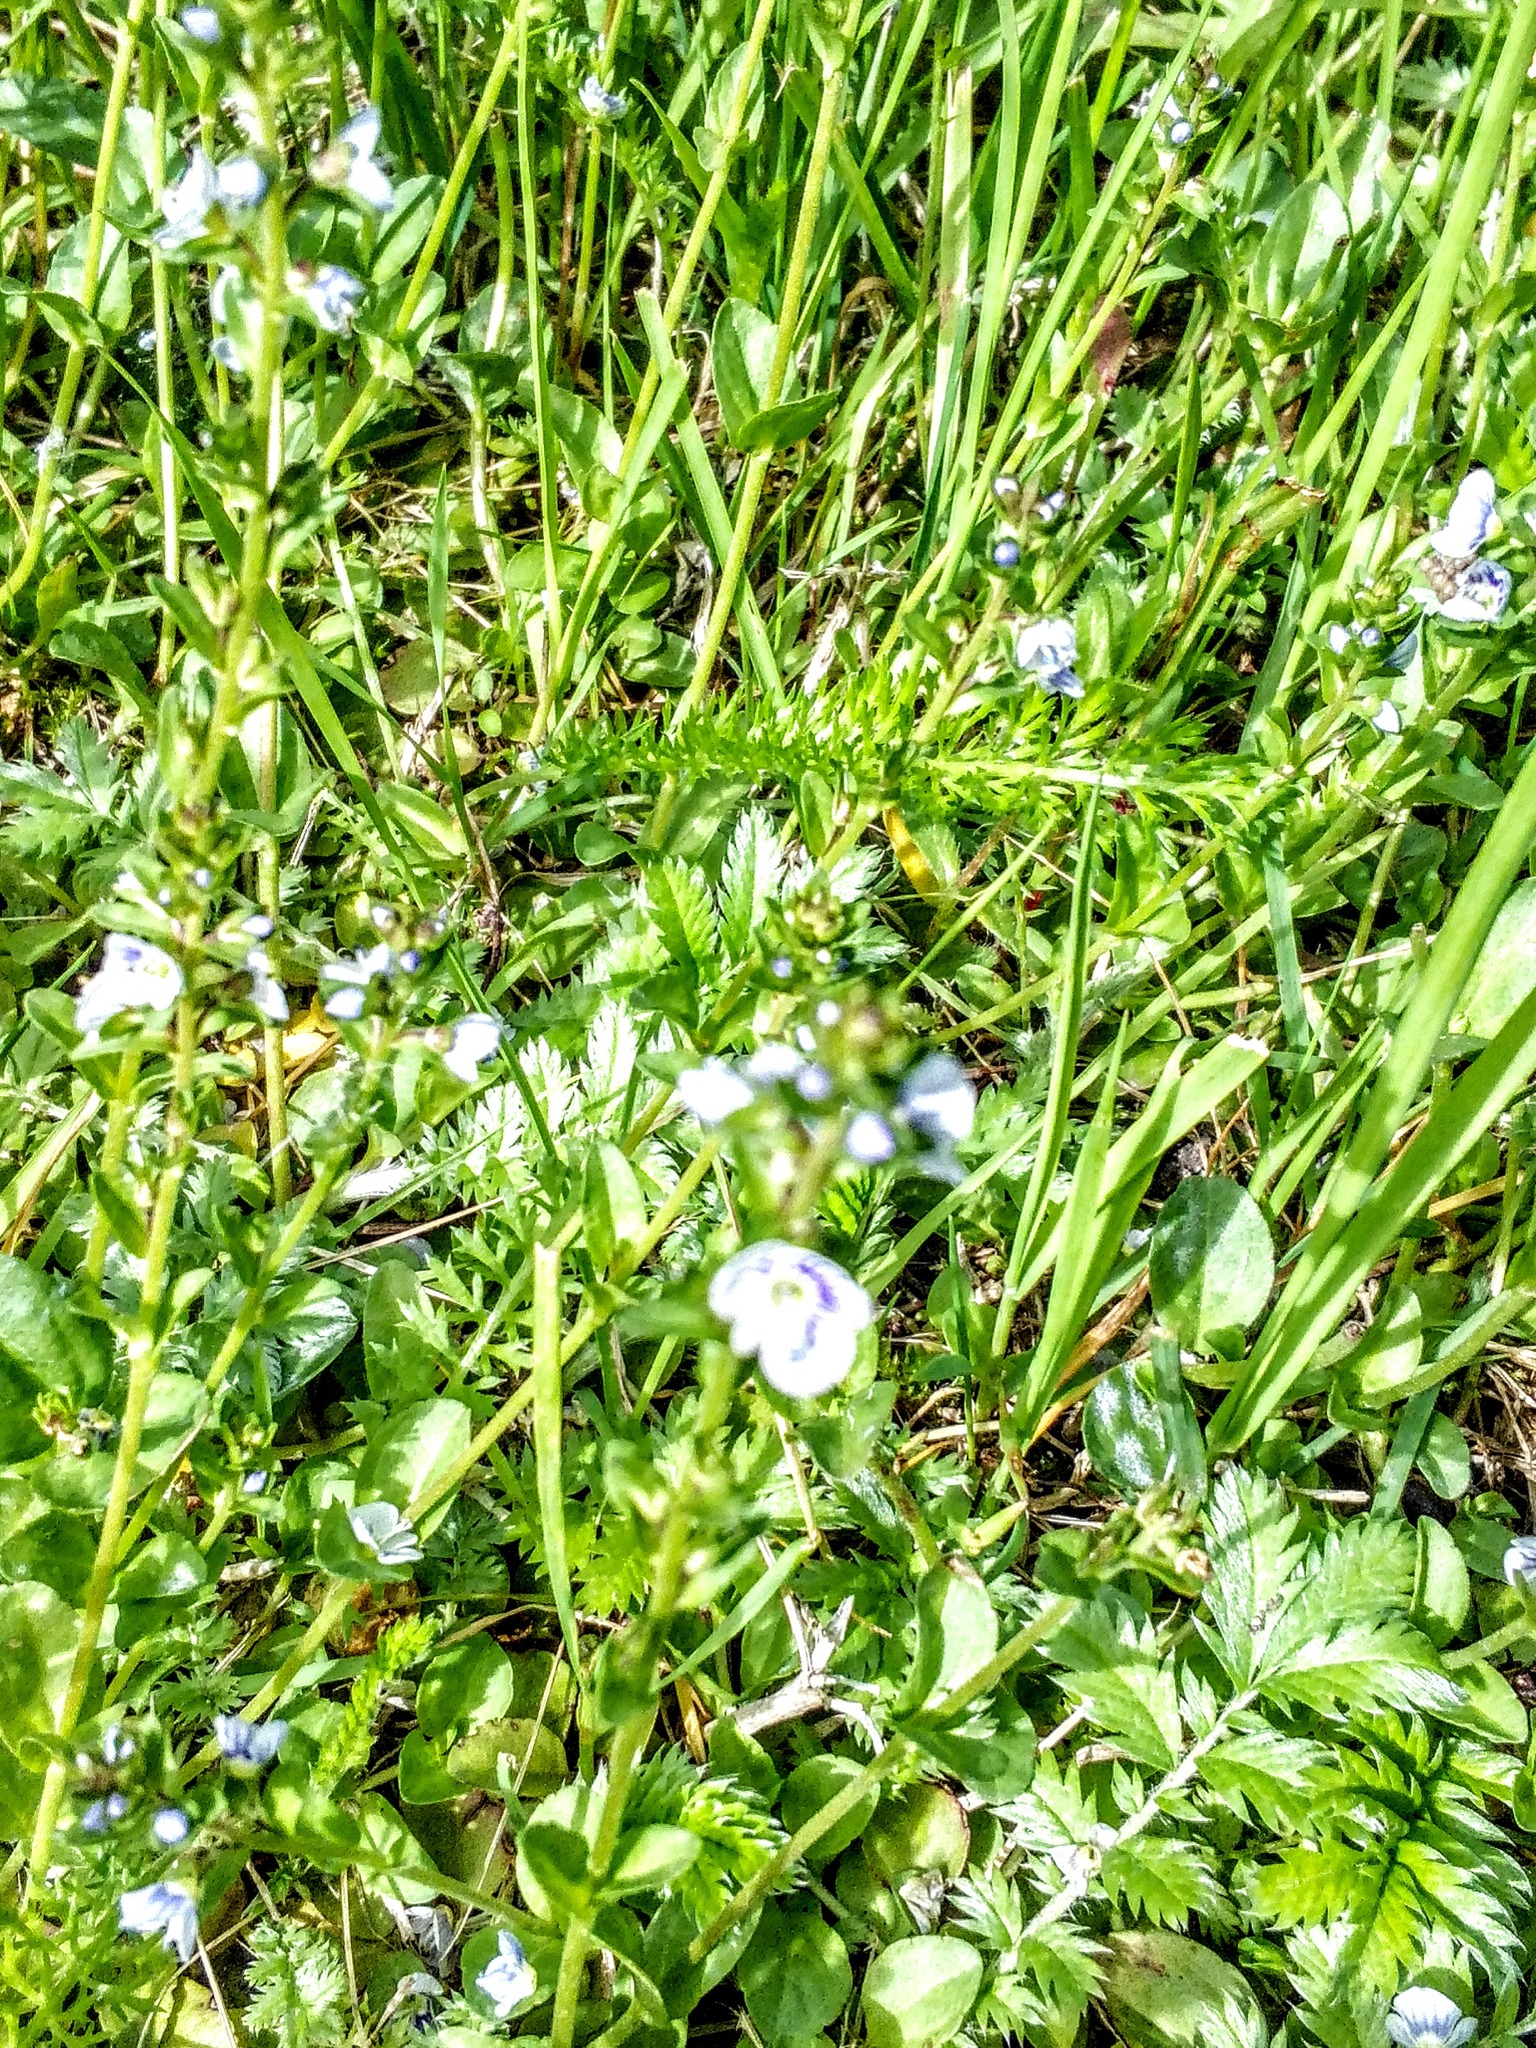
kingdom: Plantae
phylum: Tracheophyta
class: Magnoliopsida
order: Lamiales
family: Plantaginaceae
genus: Veronica
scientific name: Veronica serpyllifolia
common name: Thyme-leaved speedwell
